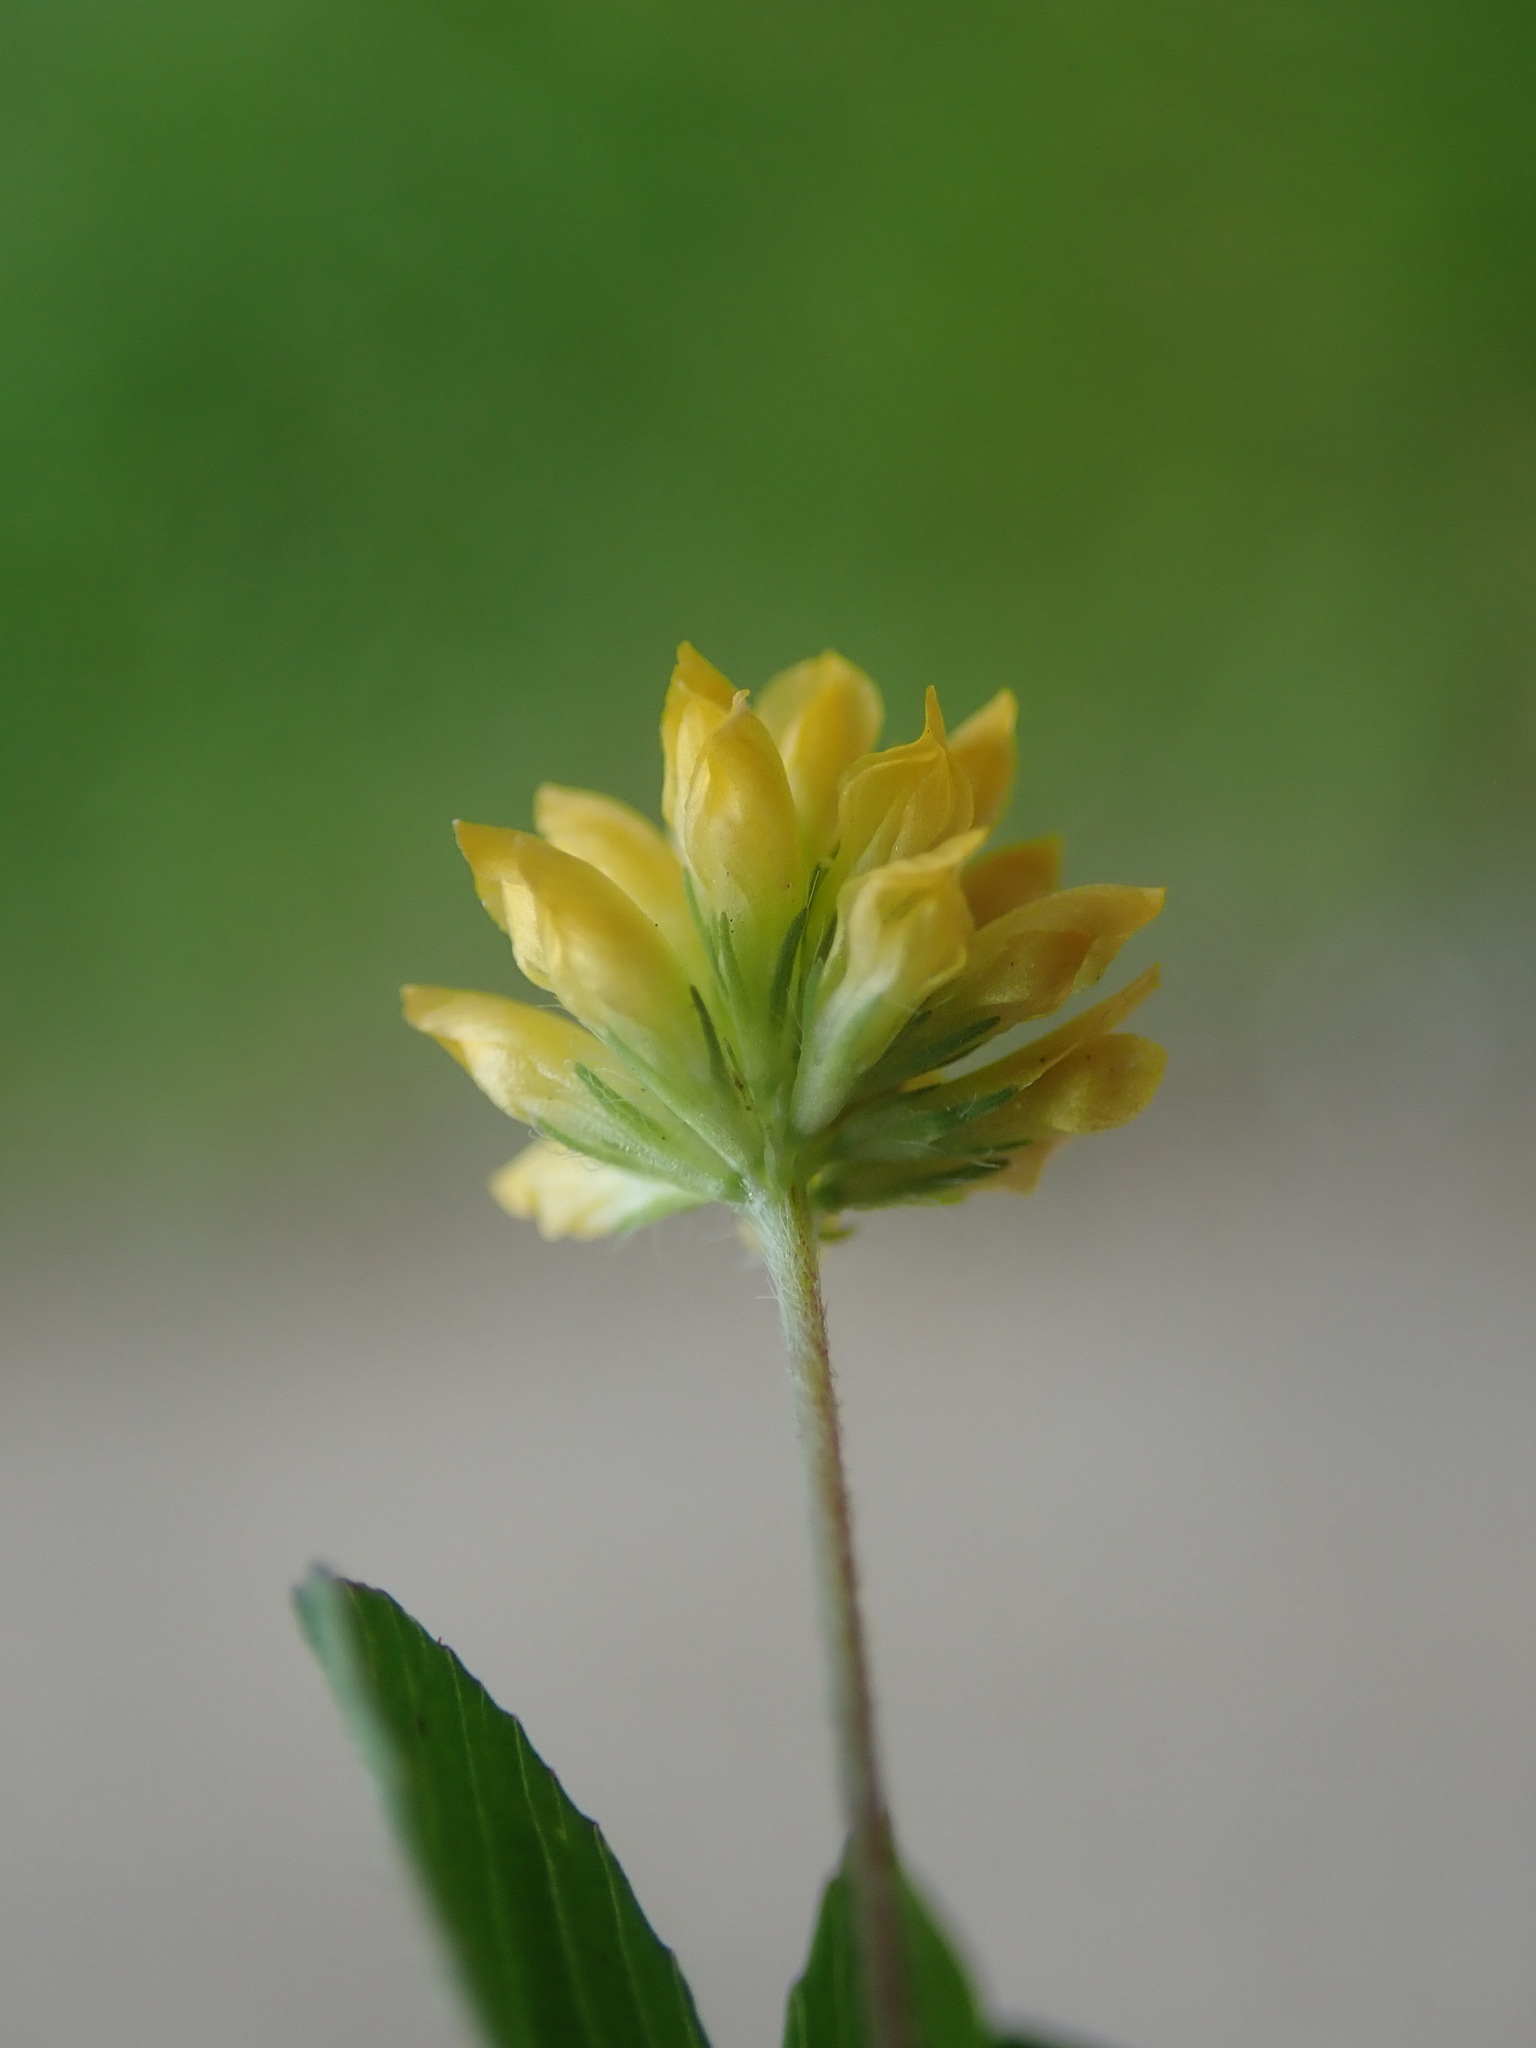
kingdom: Plantae
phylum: Tracheophyta
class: Magnoliopsida
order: Fabales
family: Fabaceae
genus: Trifolium
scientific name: Trifolium dubium
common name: Suckling clover
